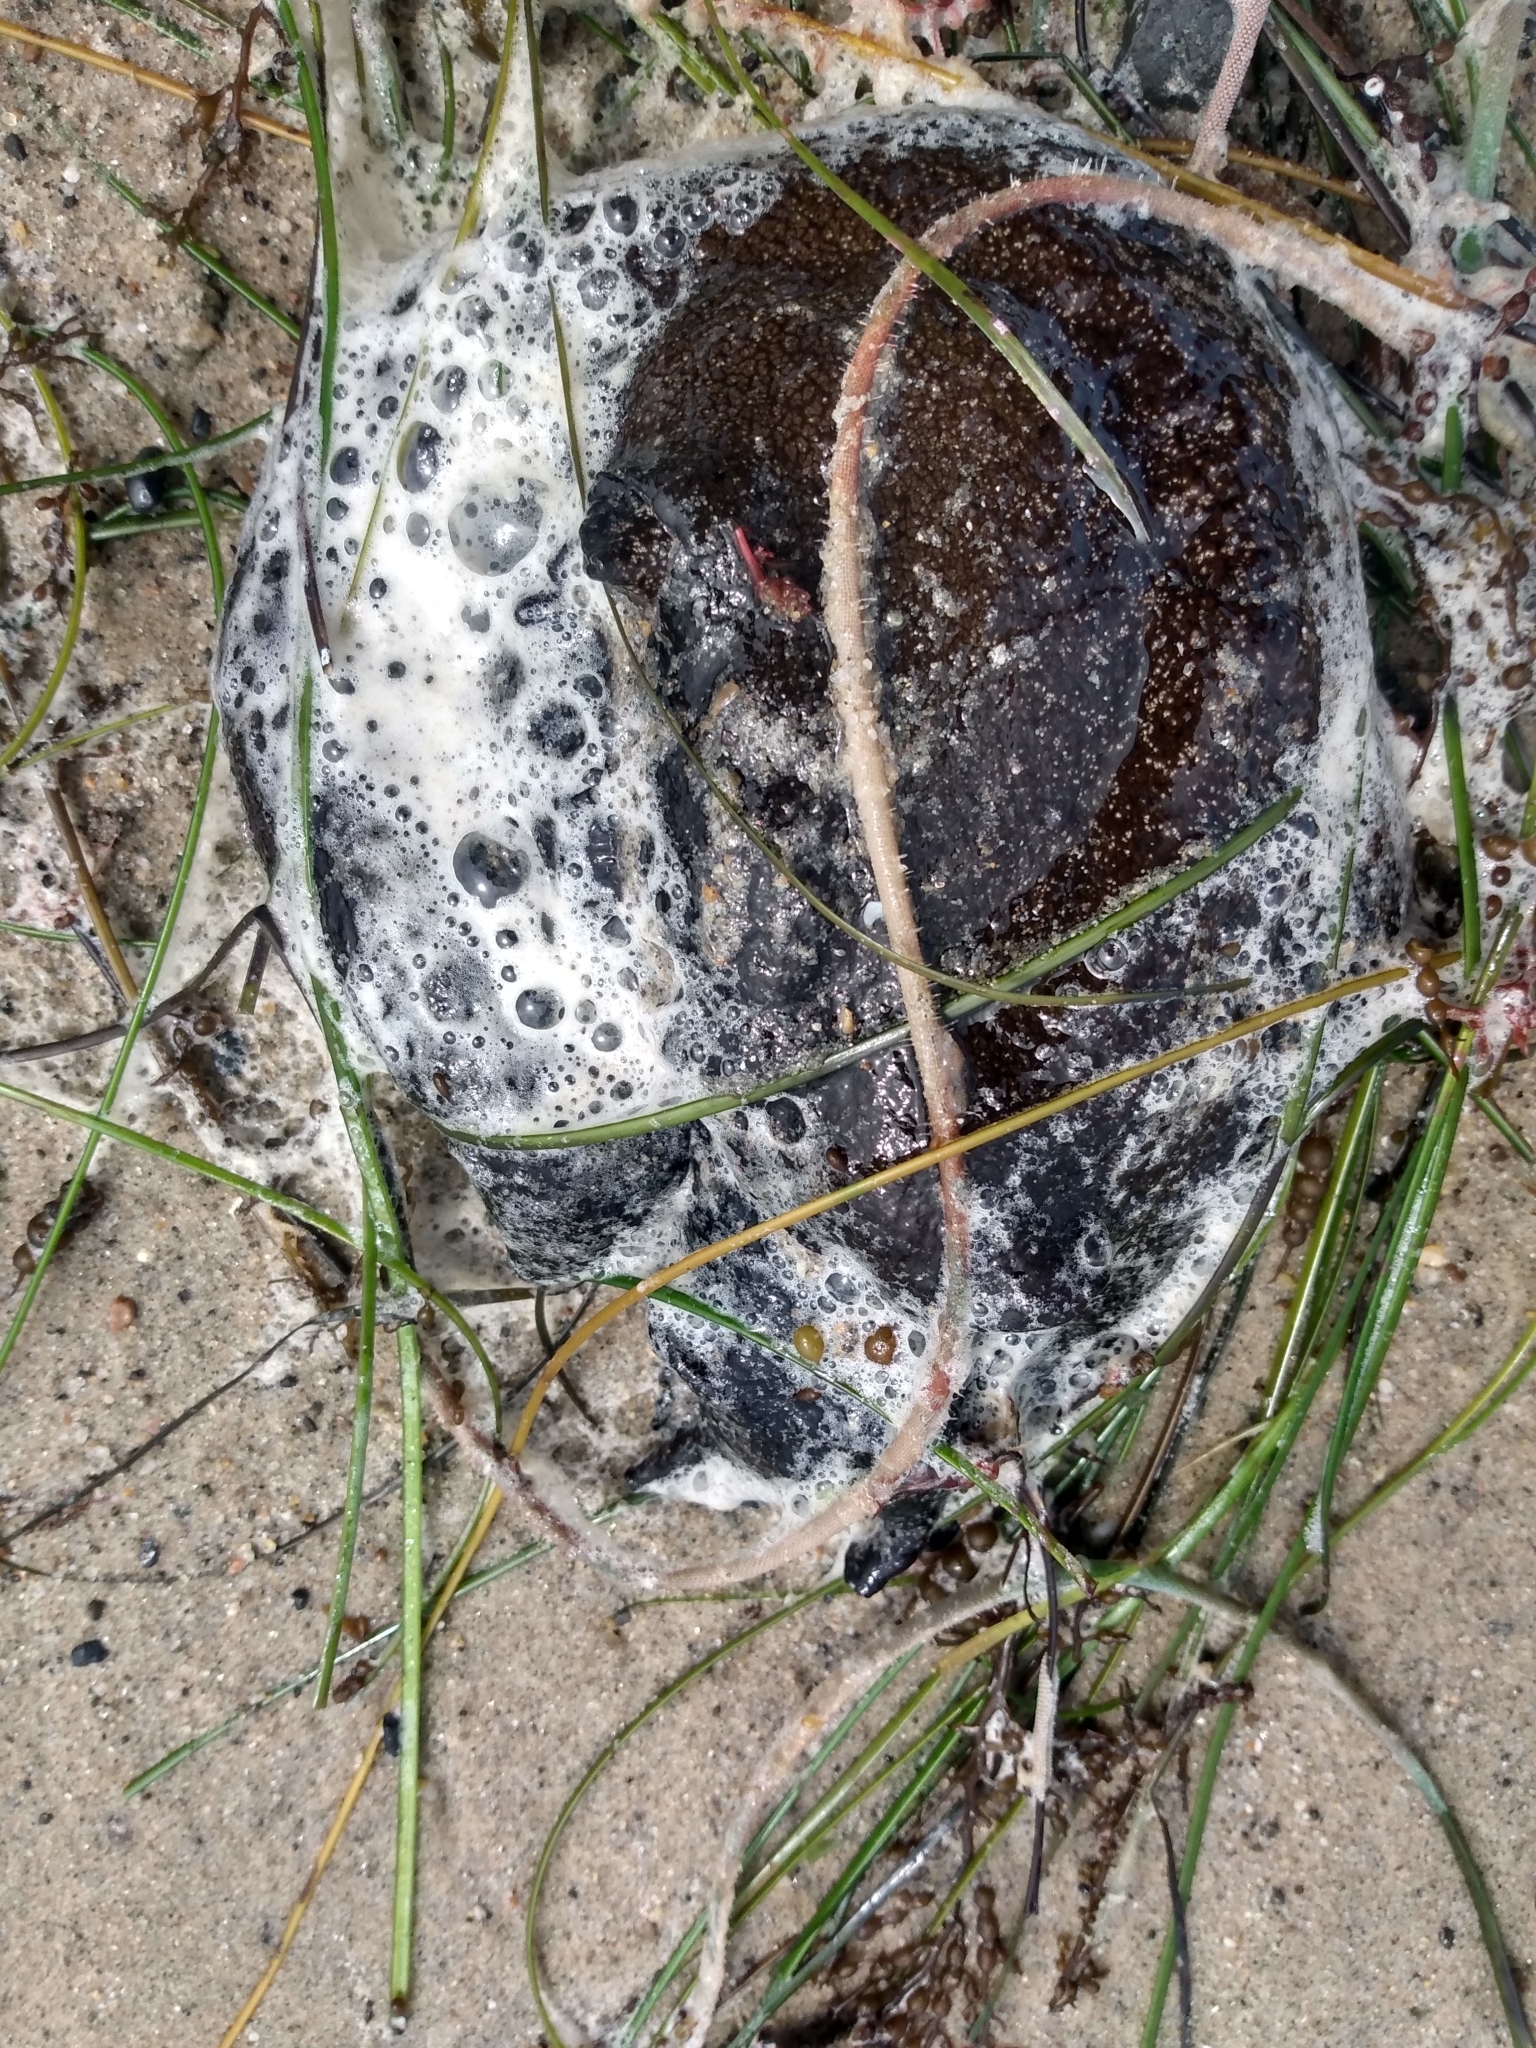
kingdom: Animalia
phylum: Mollusca
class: Gastropoda
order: Aplysiida
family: Aplysiidae
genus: Aplysia
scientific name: Aplysia vaccaria
